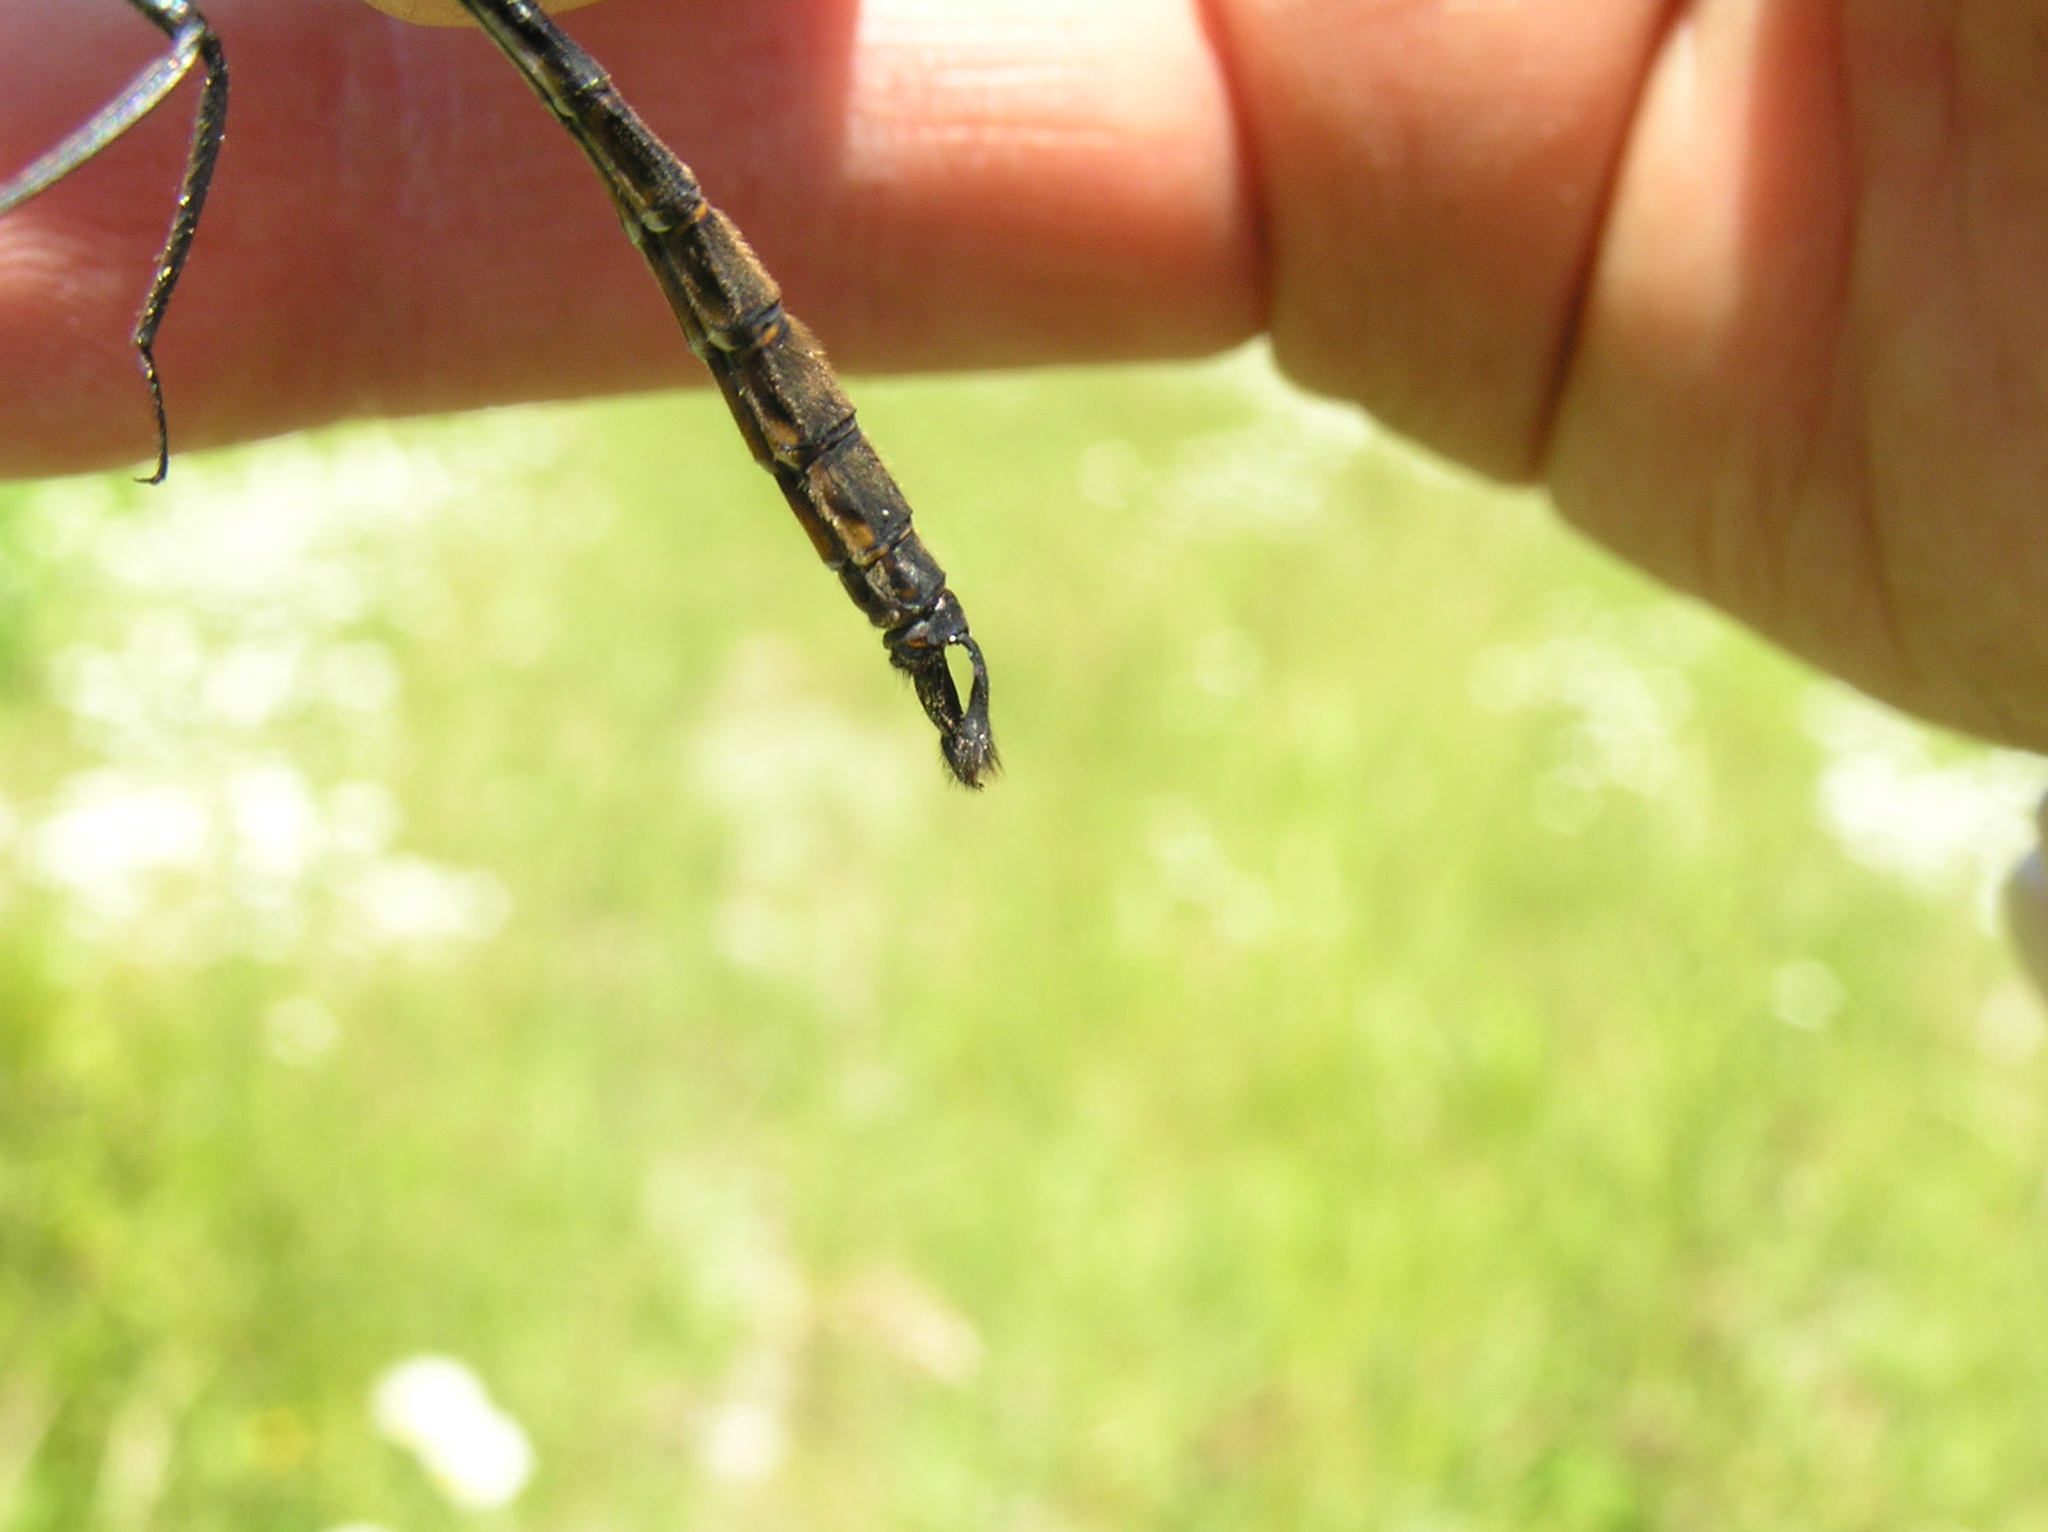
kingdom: Animalia
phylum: Arthropoda
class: Insecta
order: Odonata
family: Corduliidae
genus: Somatochlora
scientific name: Somatochlora walshii
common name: Brush-tipped emerald
